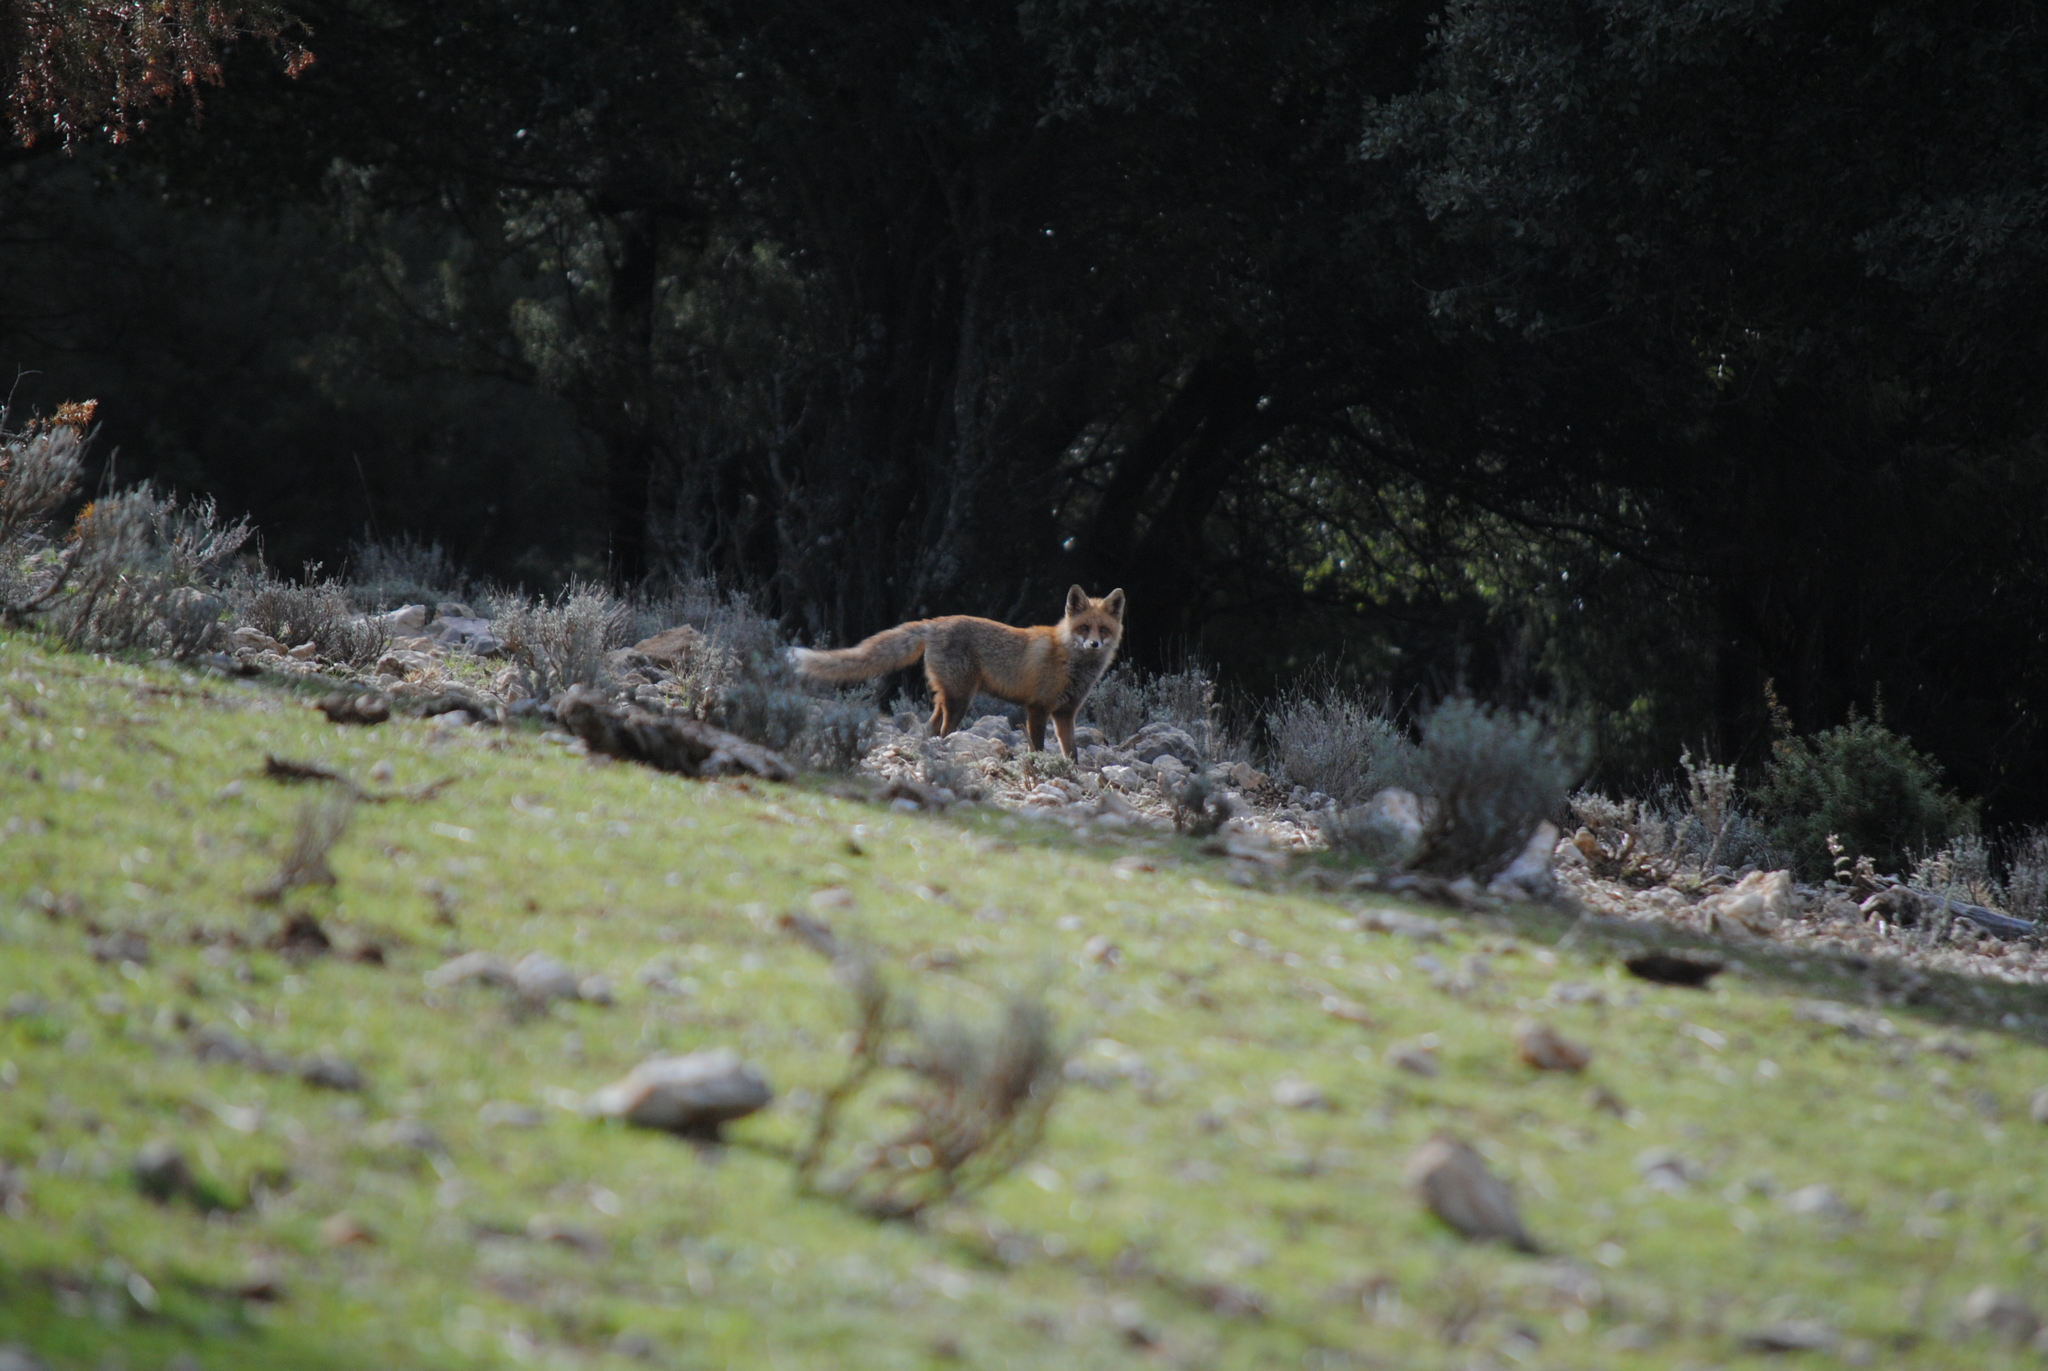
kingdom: Animalia
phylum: Chordata
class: Mammalia
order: Carnivora
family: Canidae
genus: Vulpes
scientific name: Vulpes vulpes
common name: Red fox
